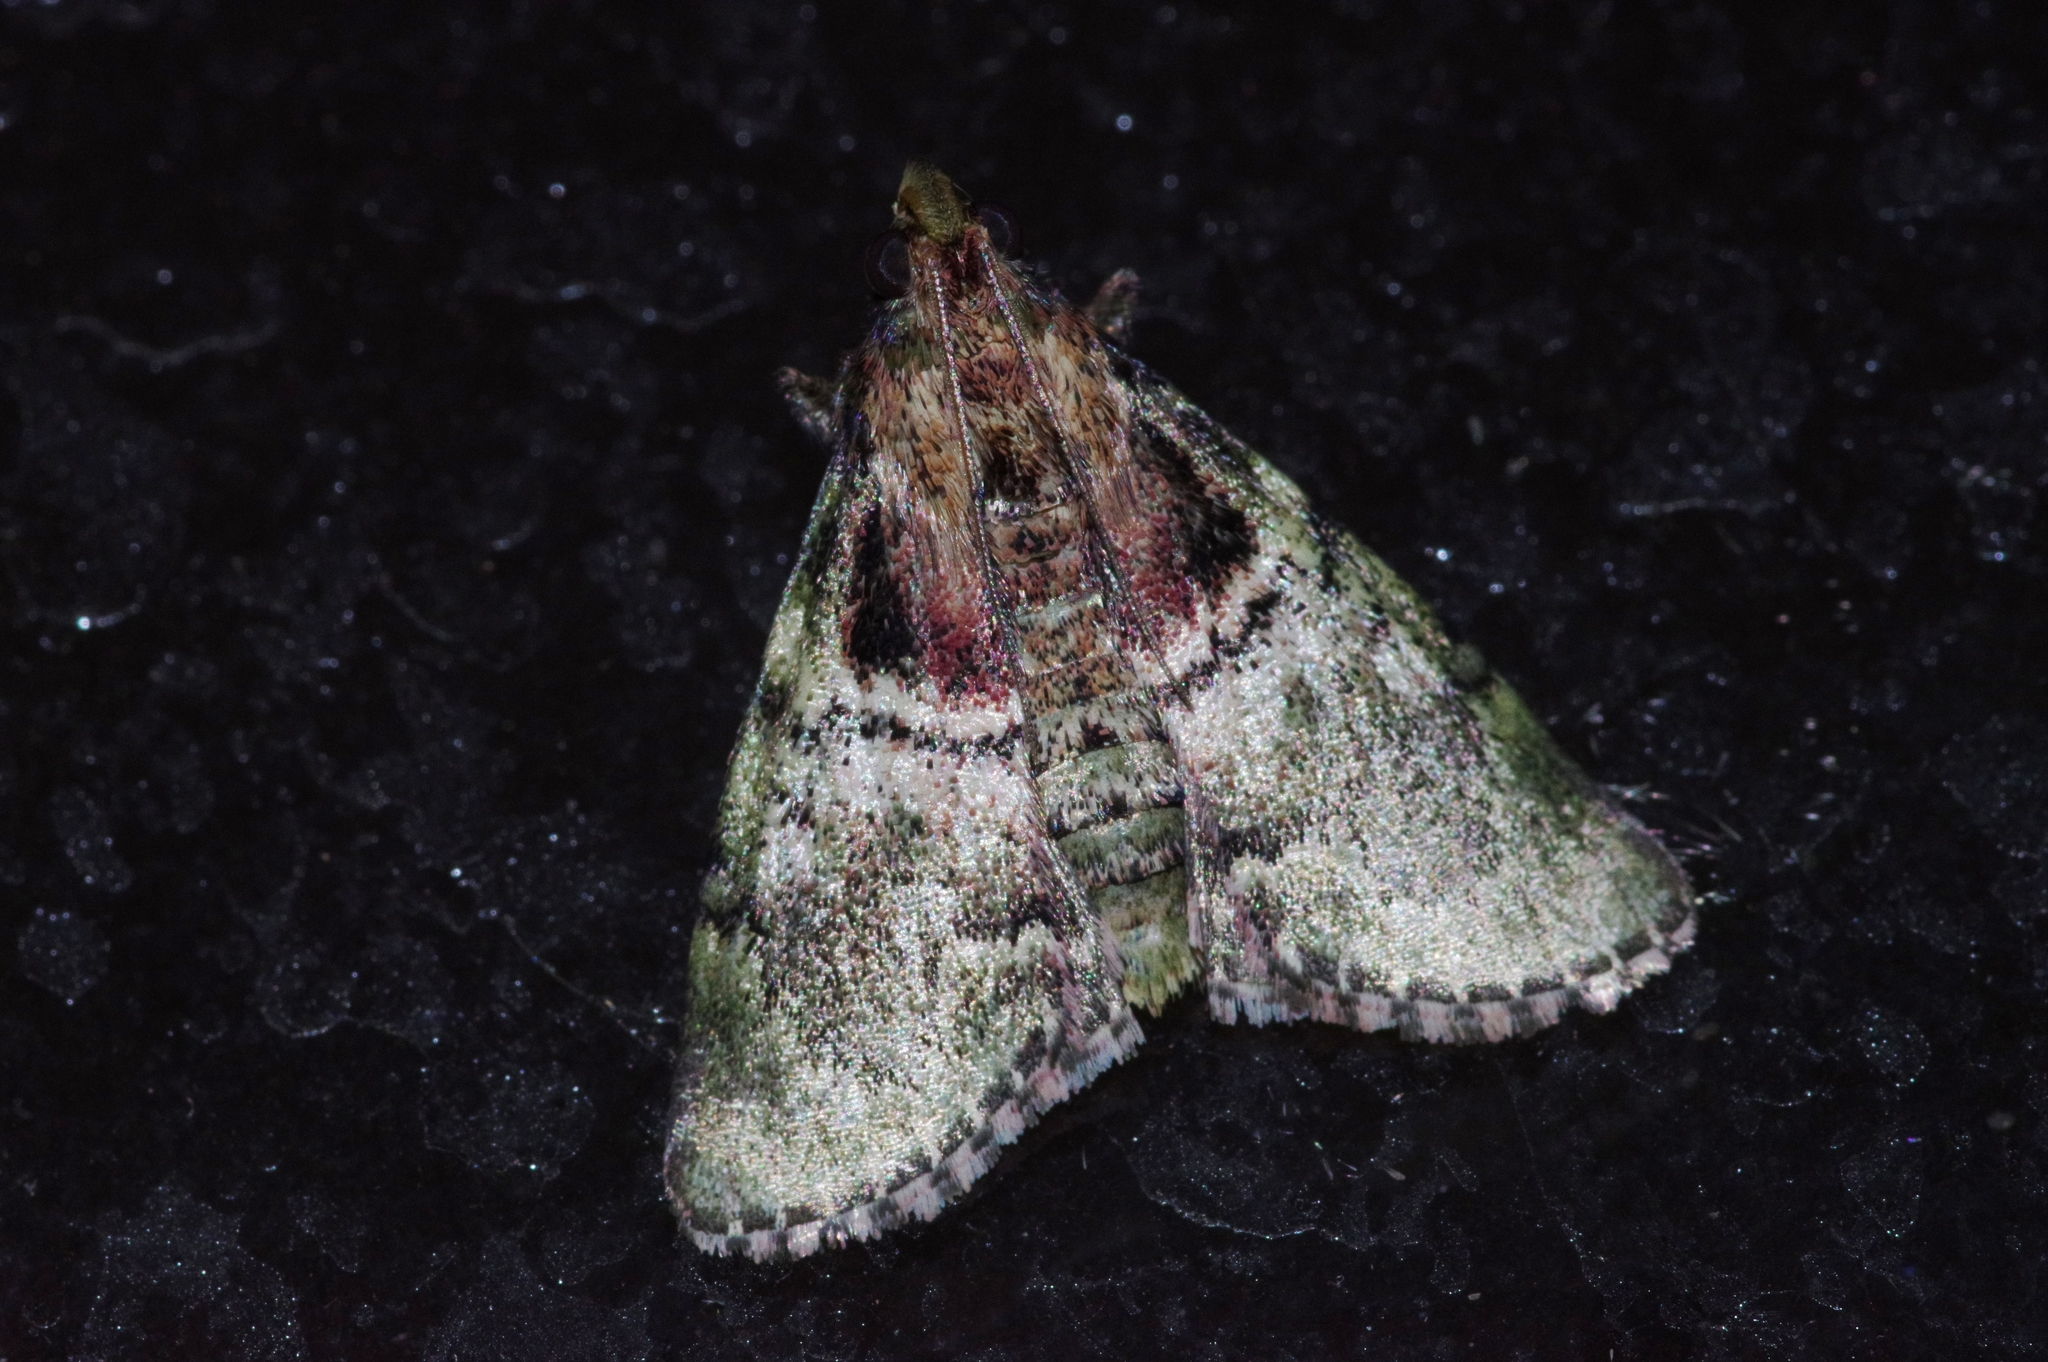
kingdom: Animalia
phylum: Arthropoda
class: Insecta
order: Lepidoptera
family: Pyralidae
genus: Locastra
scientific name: Locastra muscosalis
